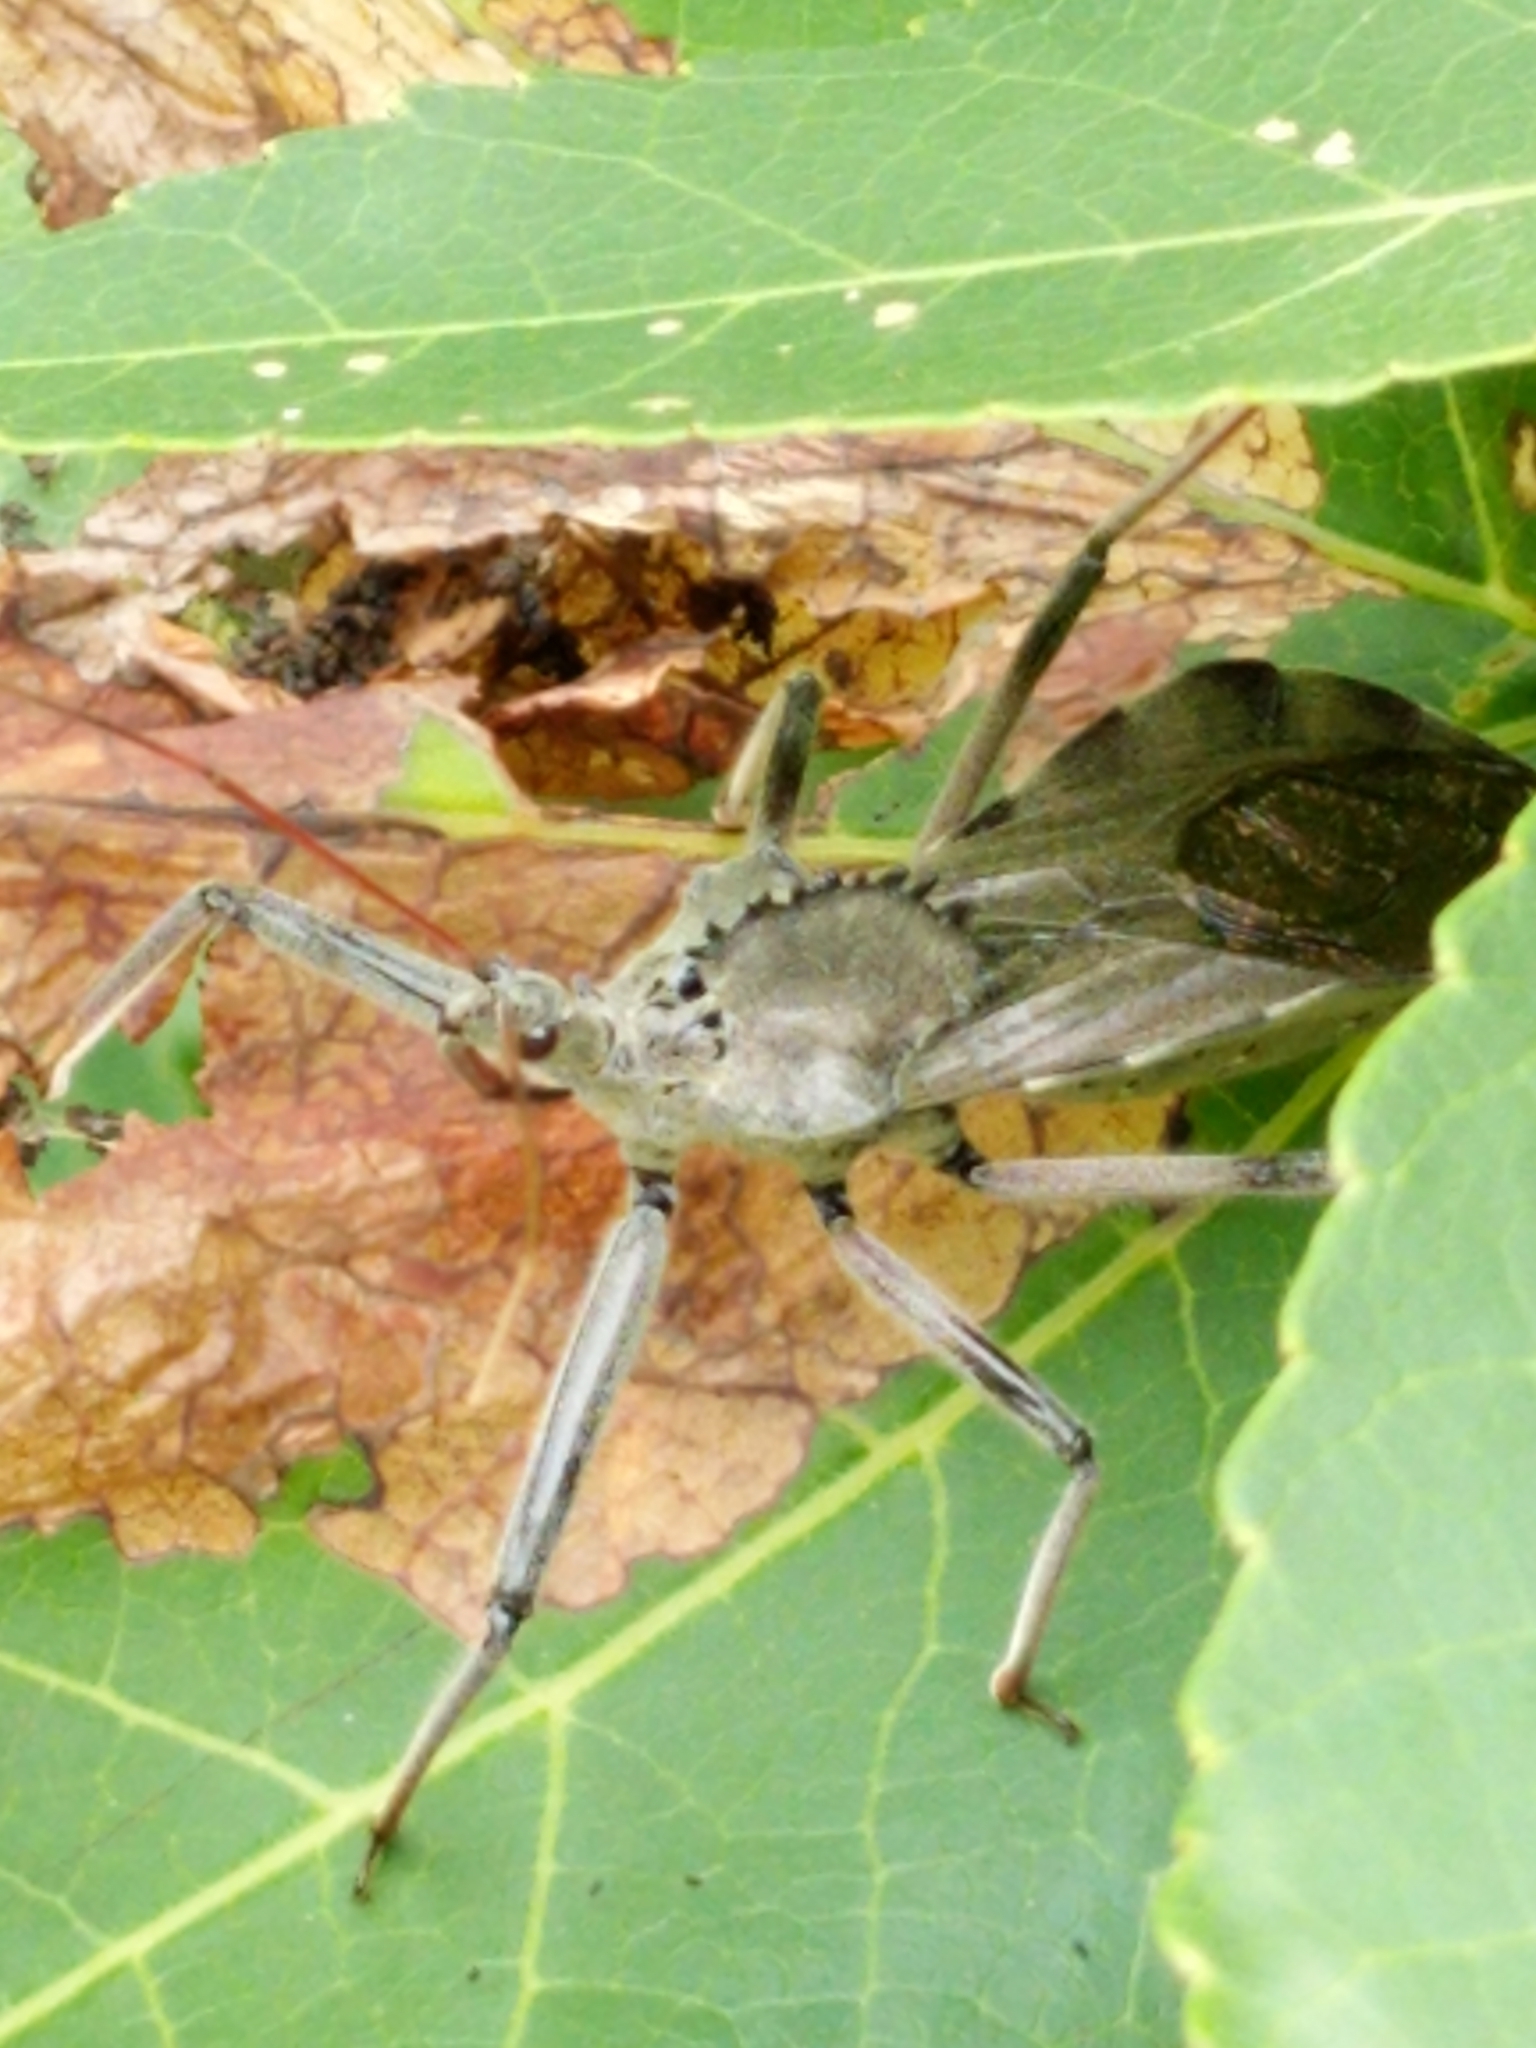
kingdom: Animalia
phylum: Arthropoda
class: Insecta
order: Hemiptera
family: Reduviidae
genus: Arilus
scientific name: Arilus cristatus
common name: North american wheel bug
